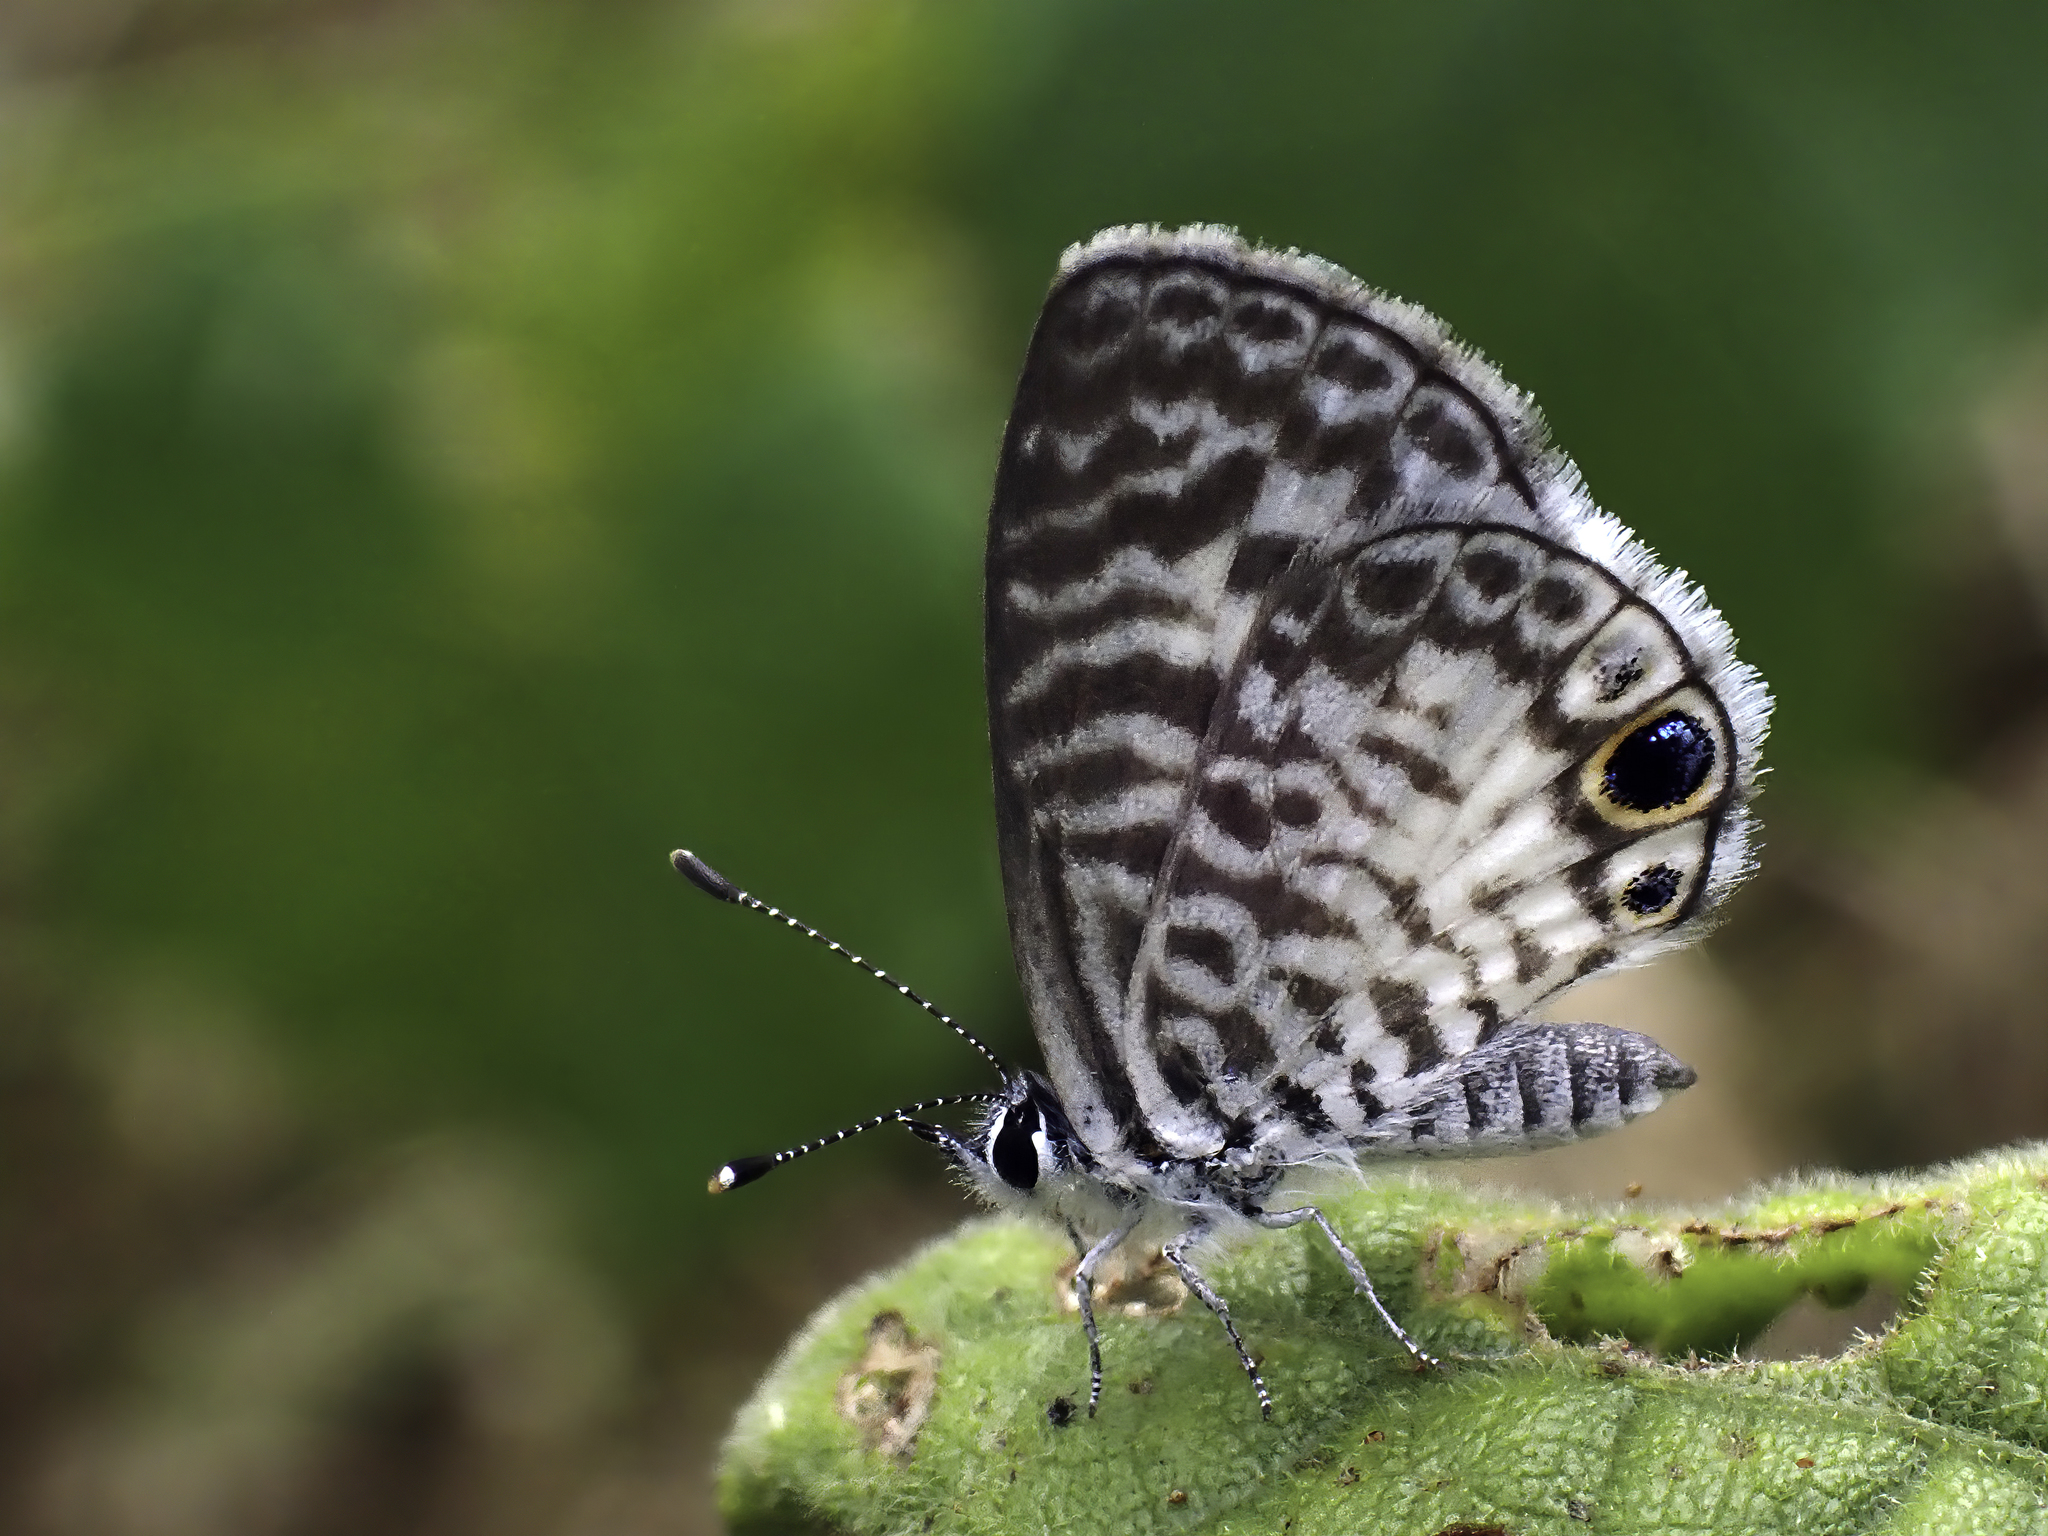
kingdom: Animalia
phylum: Arthropoda
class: Insecta
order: Lepidoptera
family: Lycaenidae
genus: Leptotes
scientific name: Leptotes cassius
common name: Cassius blue
